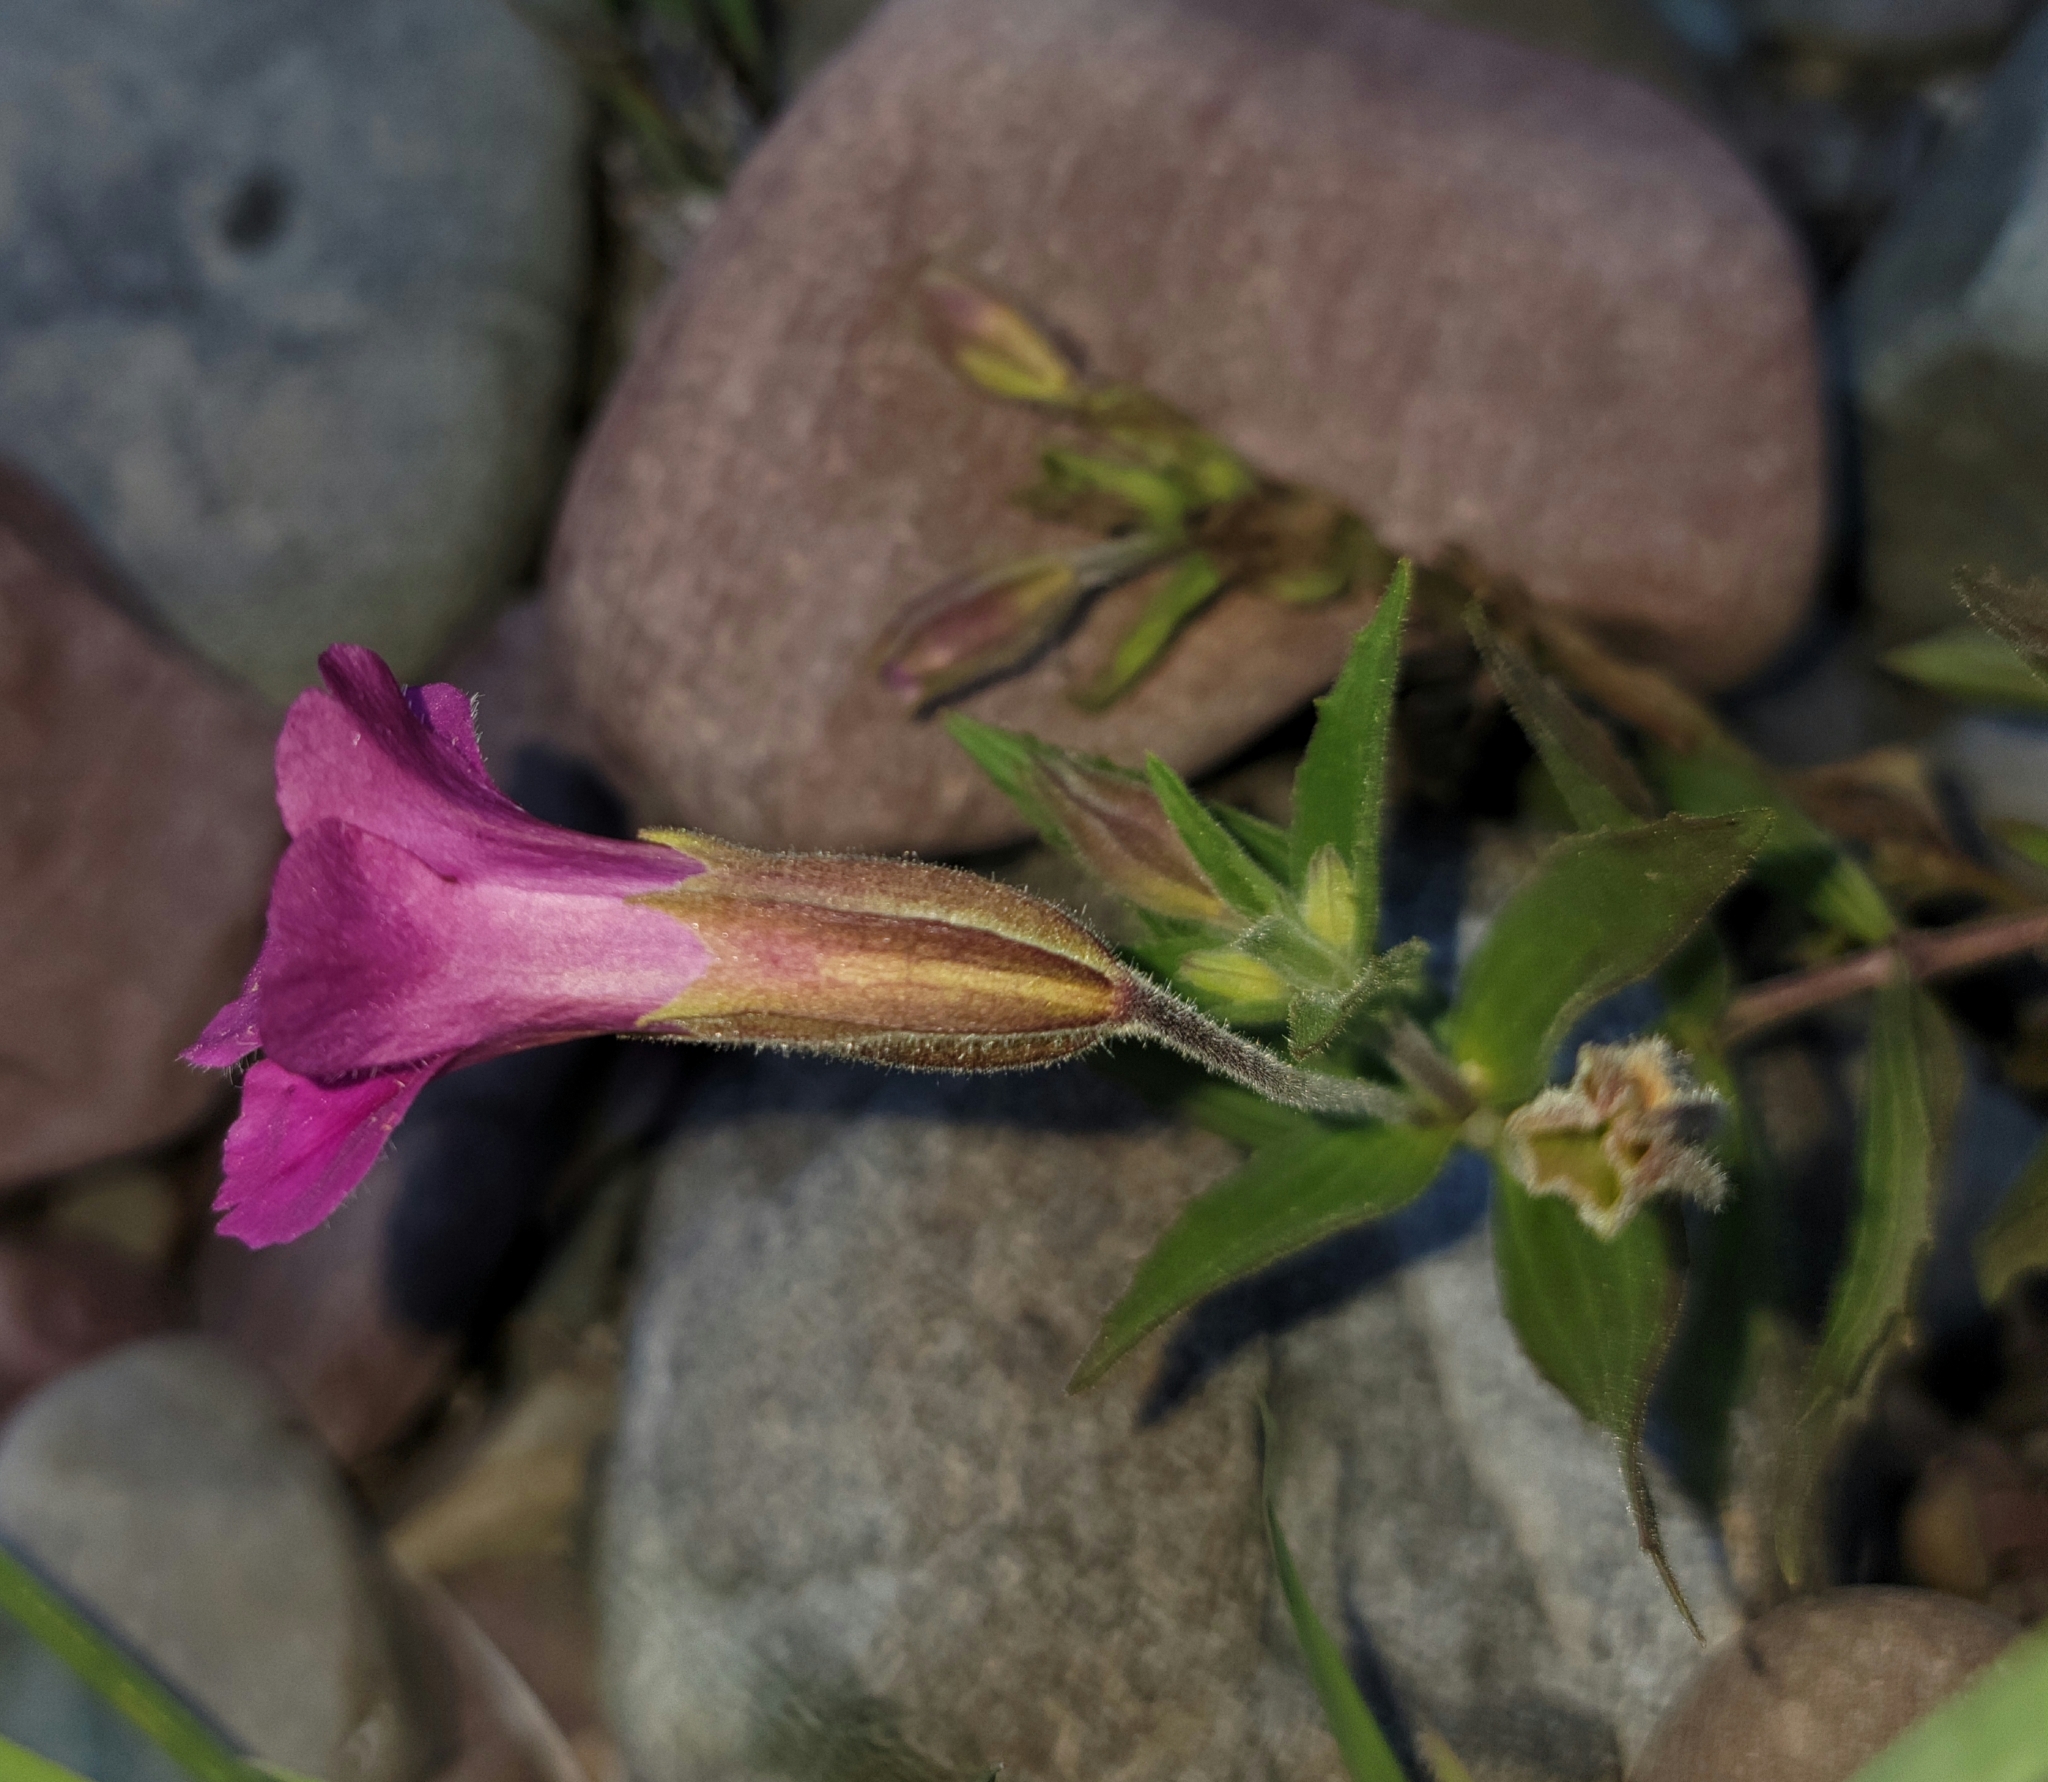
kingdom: Plantae
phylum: Tracheophyta
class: Magnoliopsida
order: Lamiales
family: Phrymaceae
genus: Erythranthe
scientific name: Erythranthe lewisii
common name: Lewis's monkey-flower
